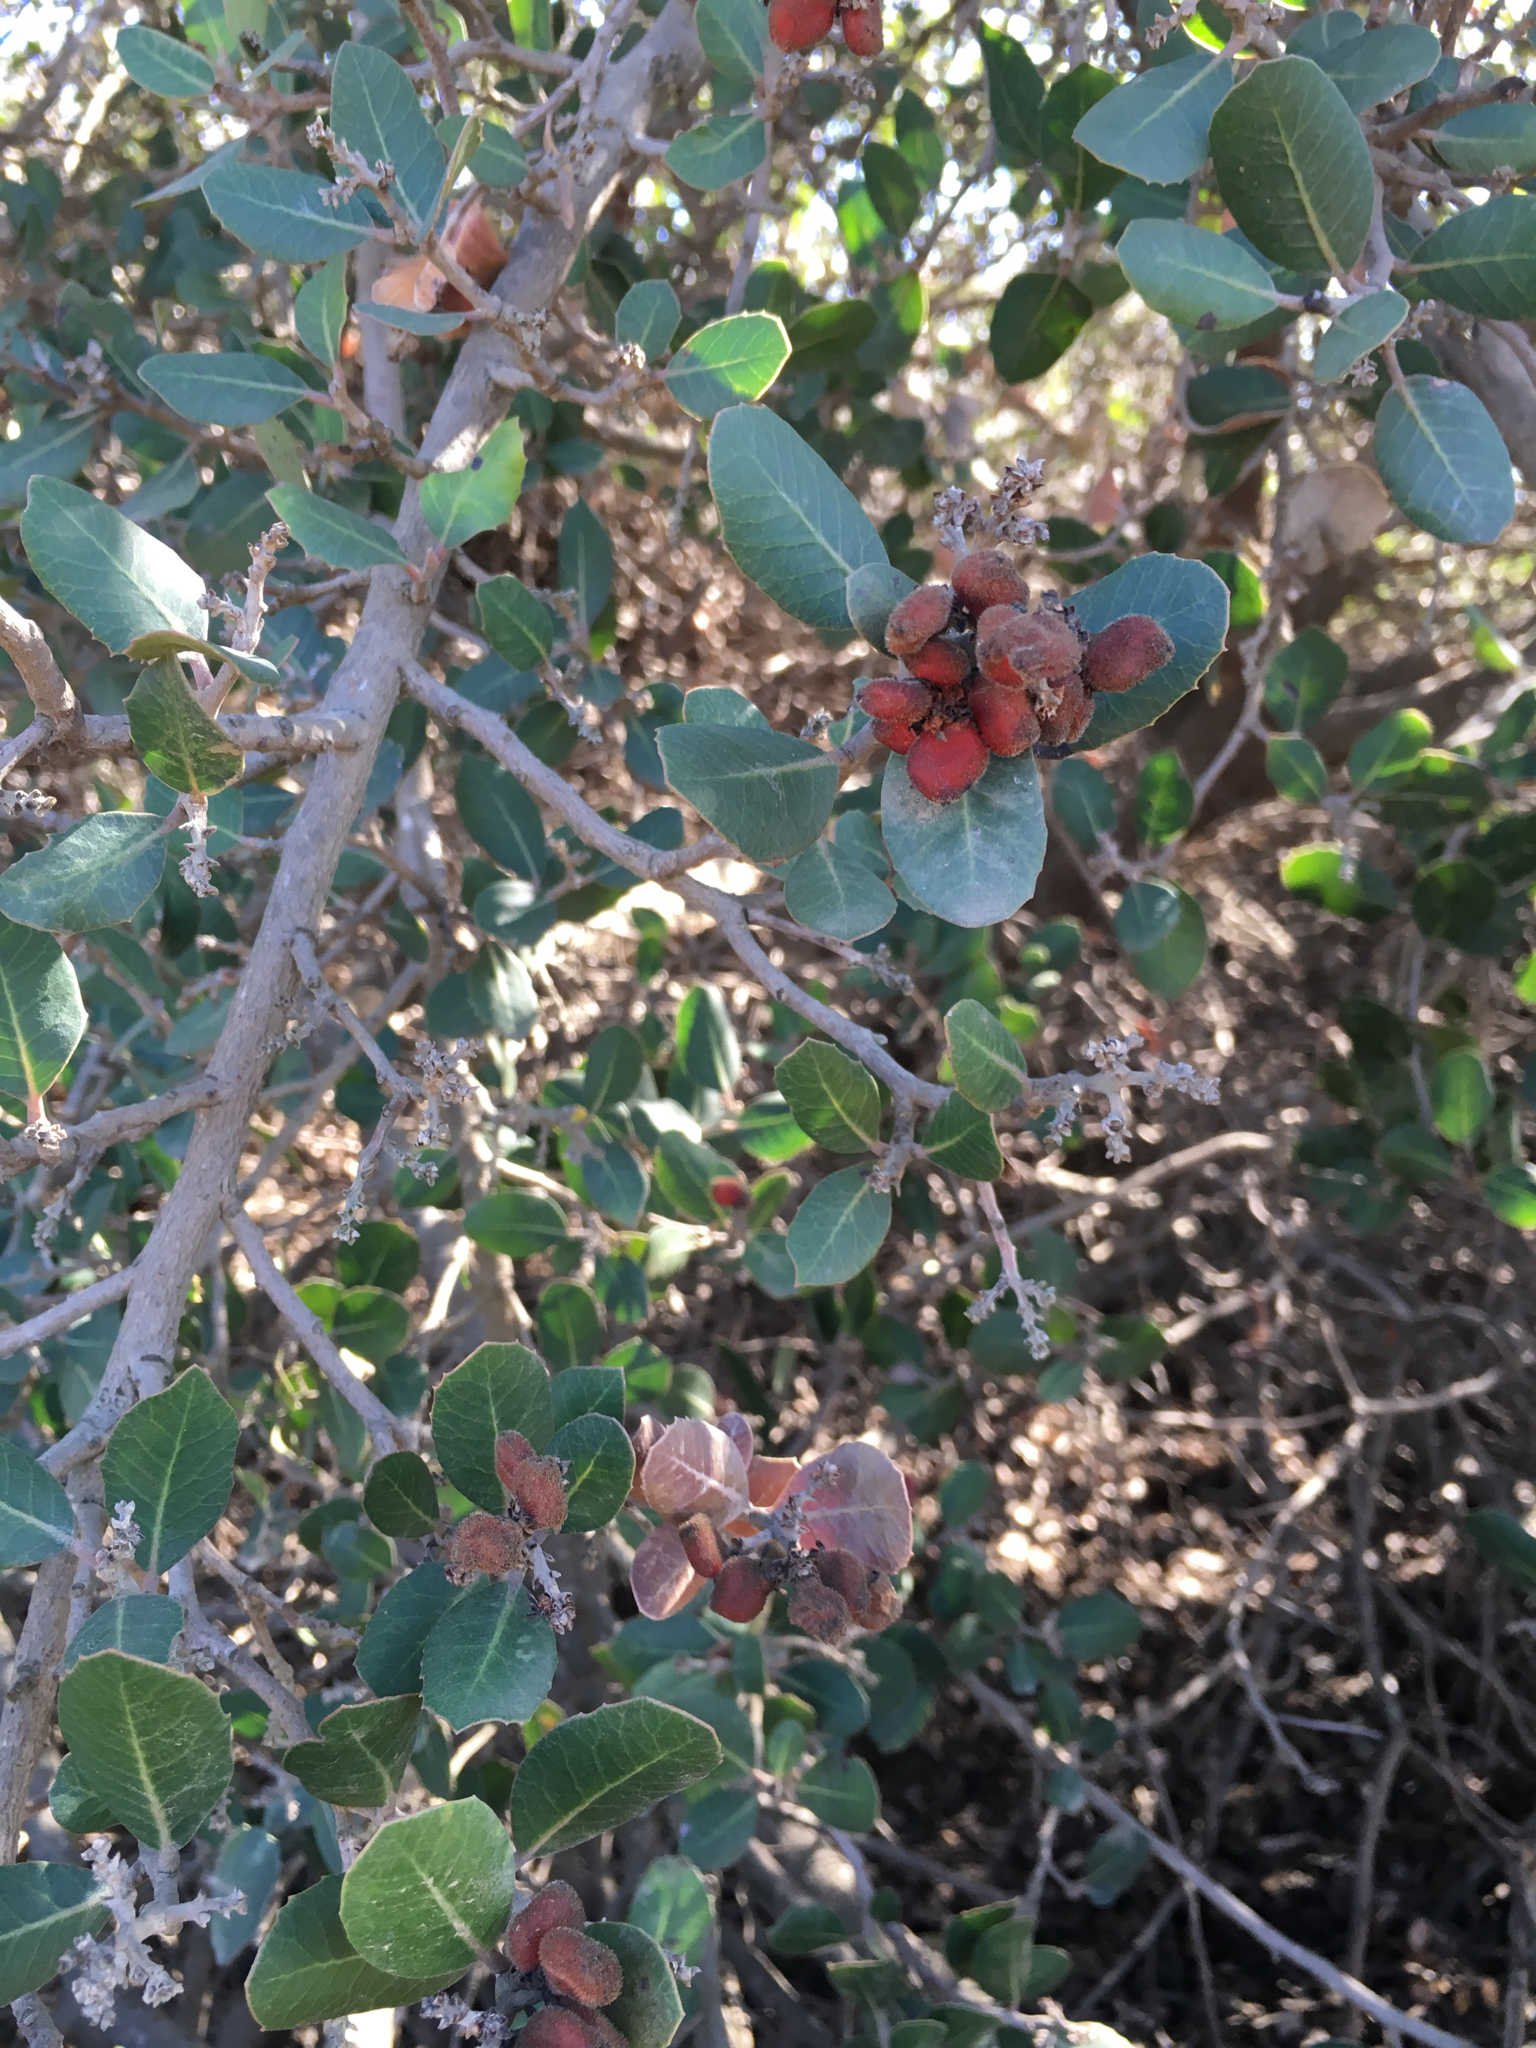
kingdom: Plantae
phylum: Tracheophyta
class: Magnoliopsida
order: Sapindales
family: Anacardiaceae
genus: Rhus
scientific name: Rhus integrifolia
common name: Lemonade sumac
